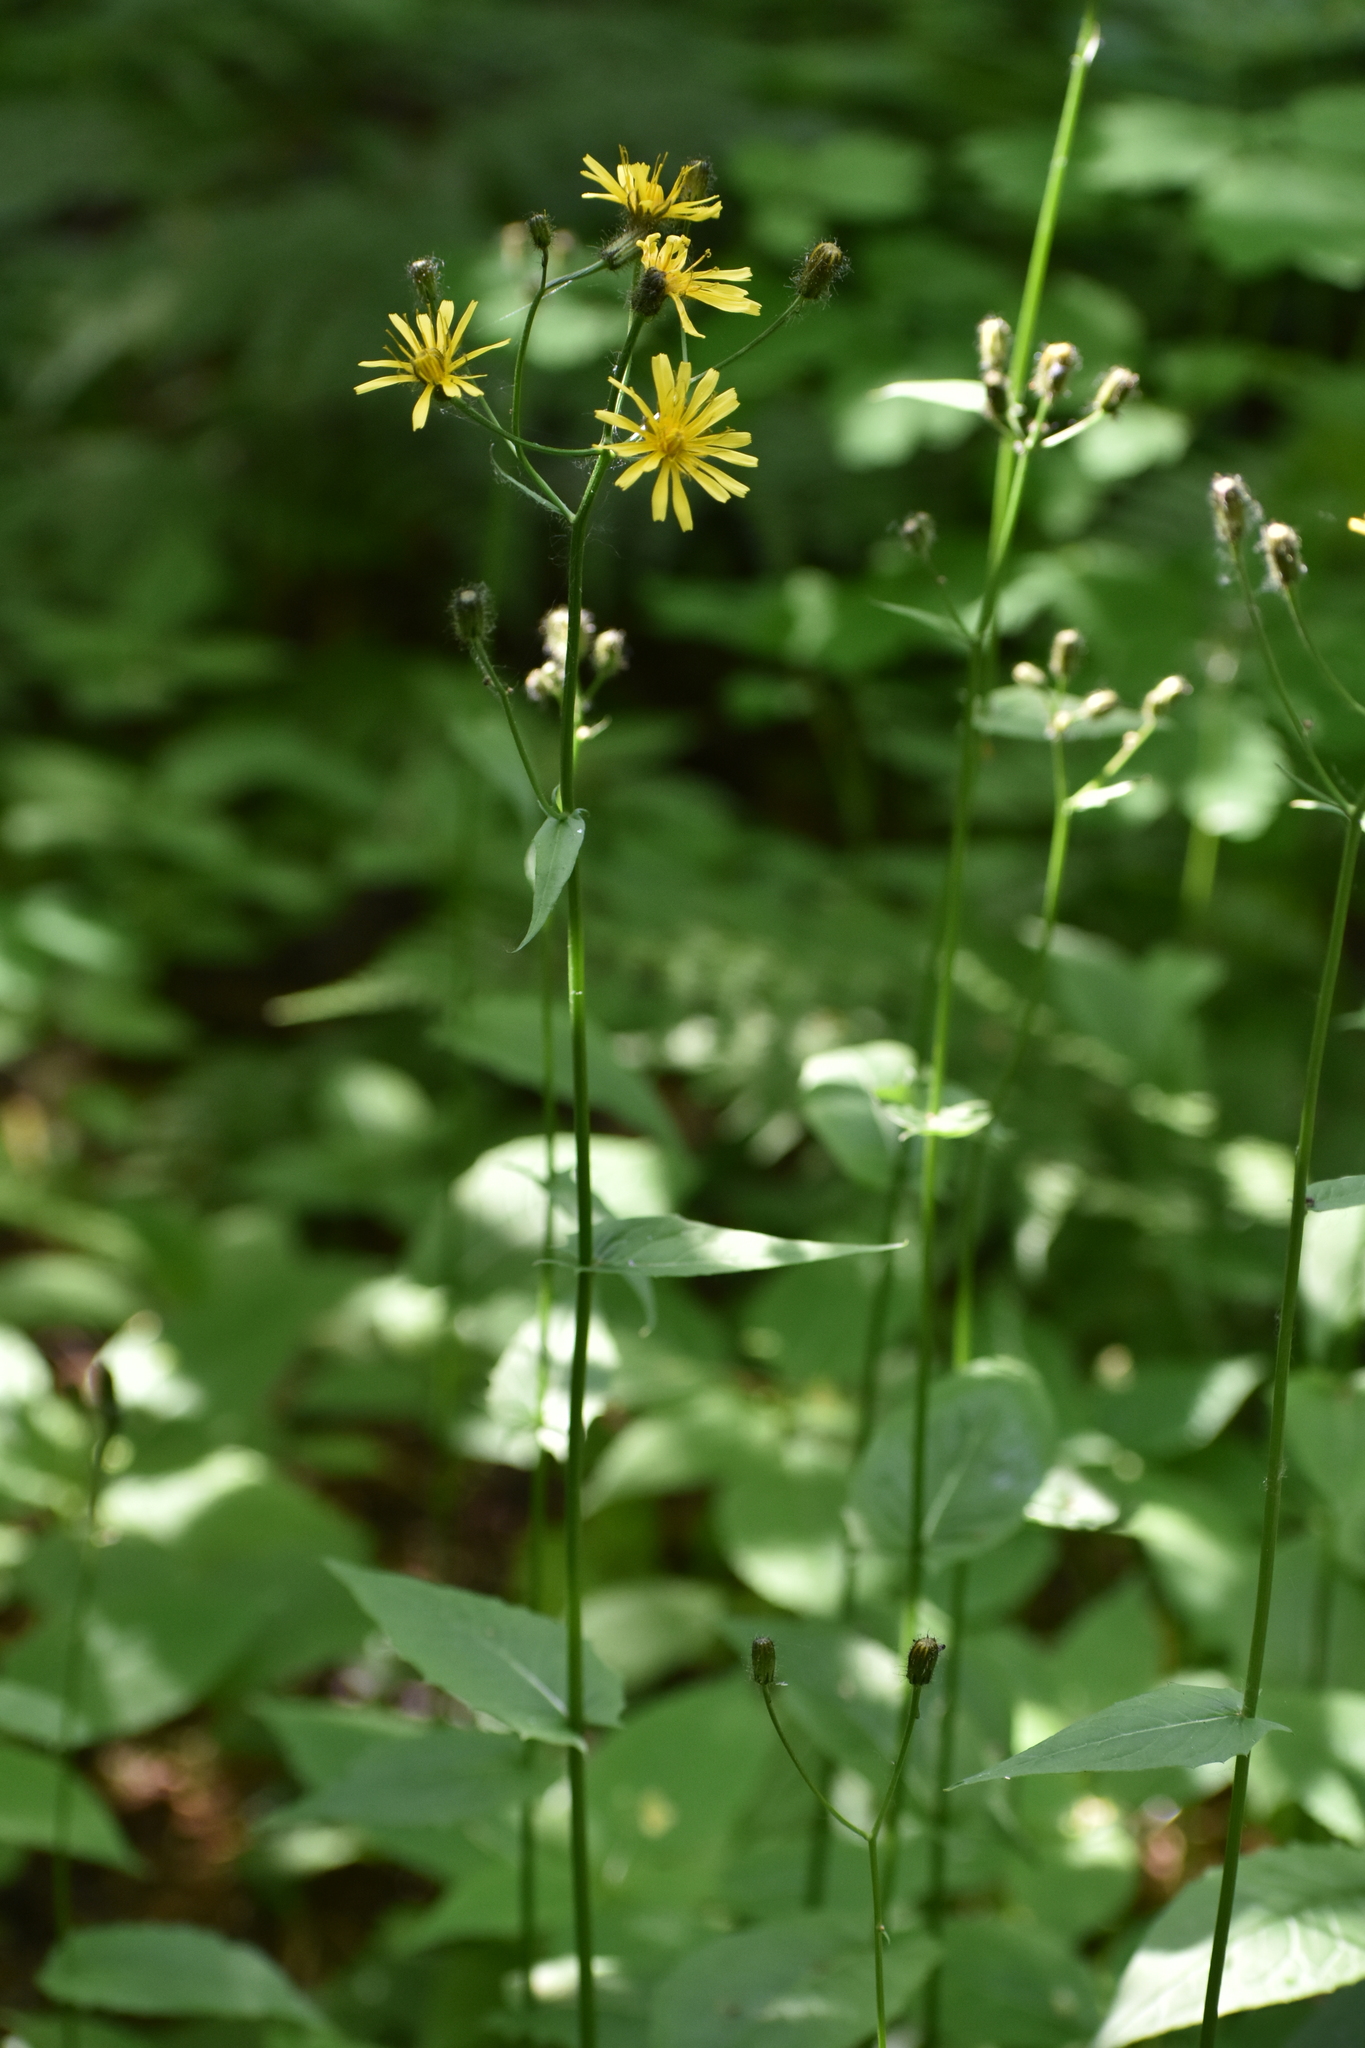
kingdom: Plantae
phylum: Tracheophyta
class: Magnoliopsida
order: Asterales
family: Asteraceae
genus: Crepis
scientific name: Crepis paludosa
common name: Marsh hawk's-beard
